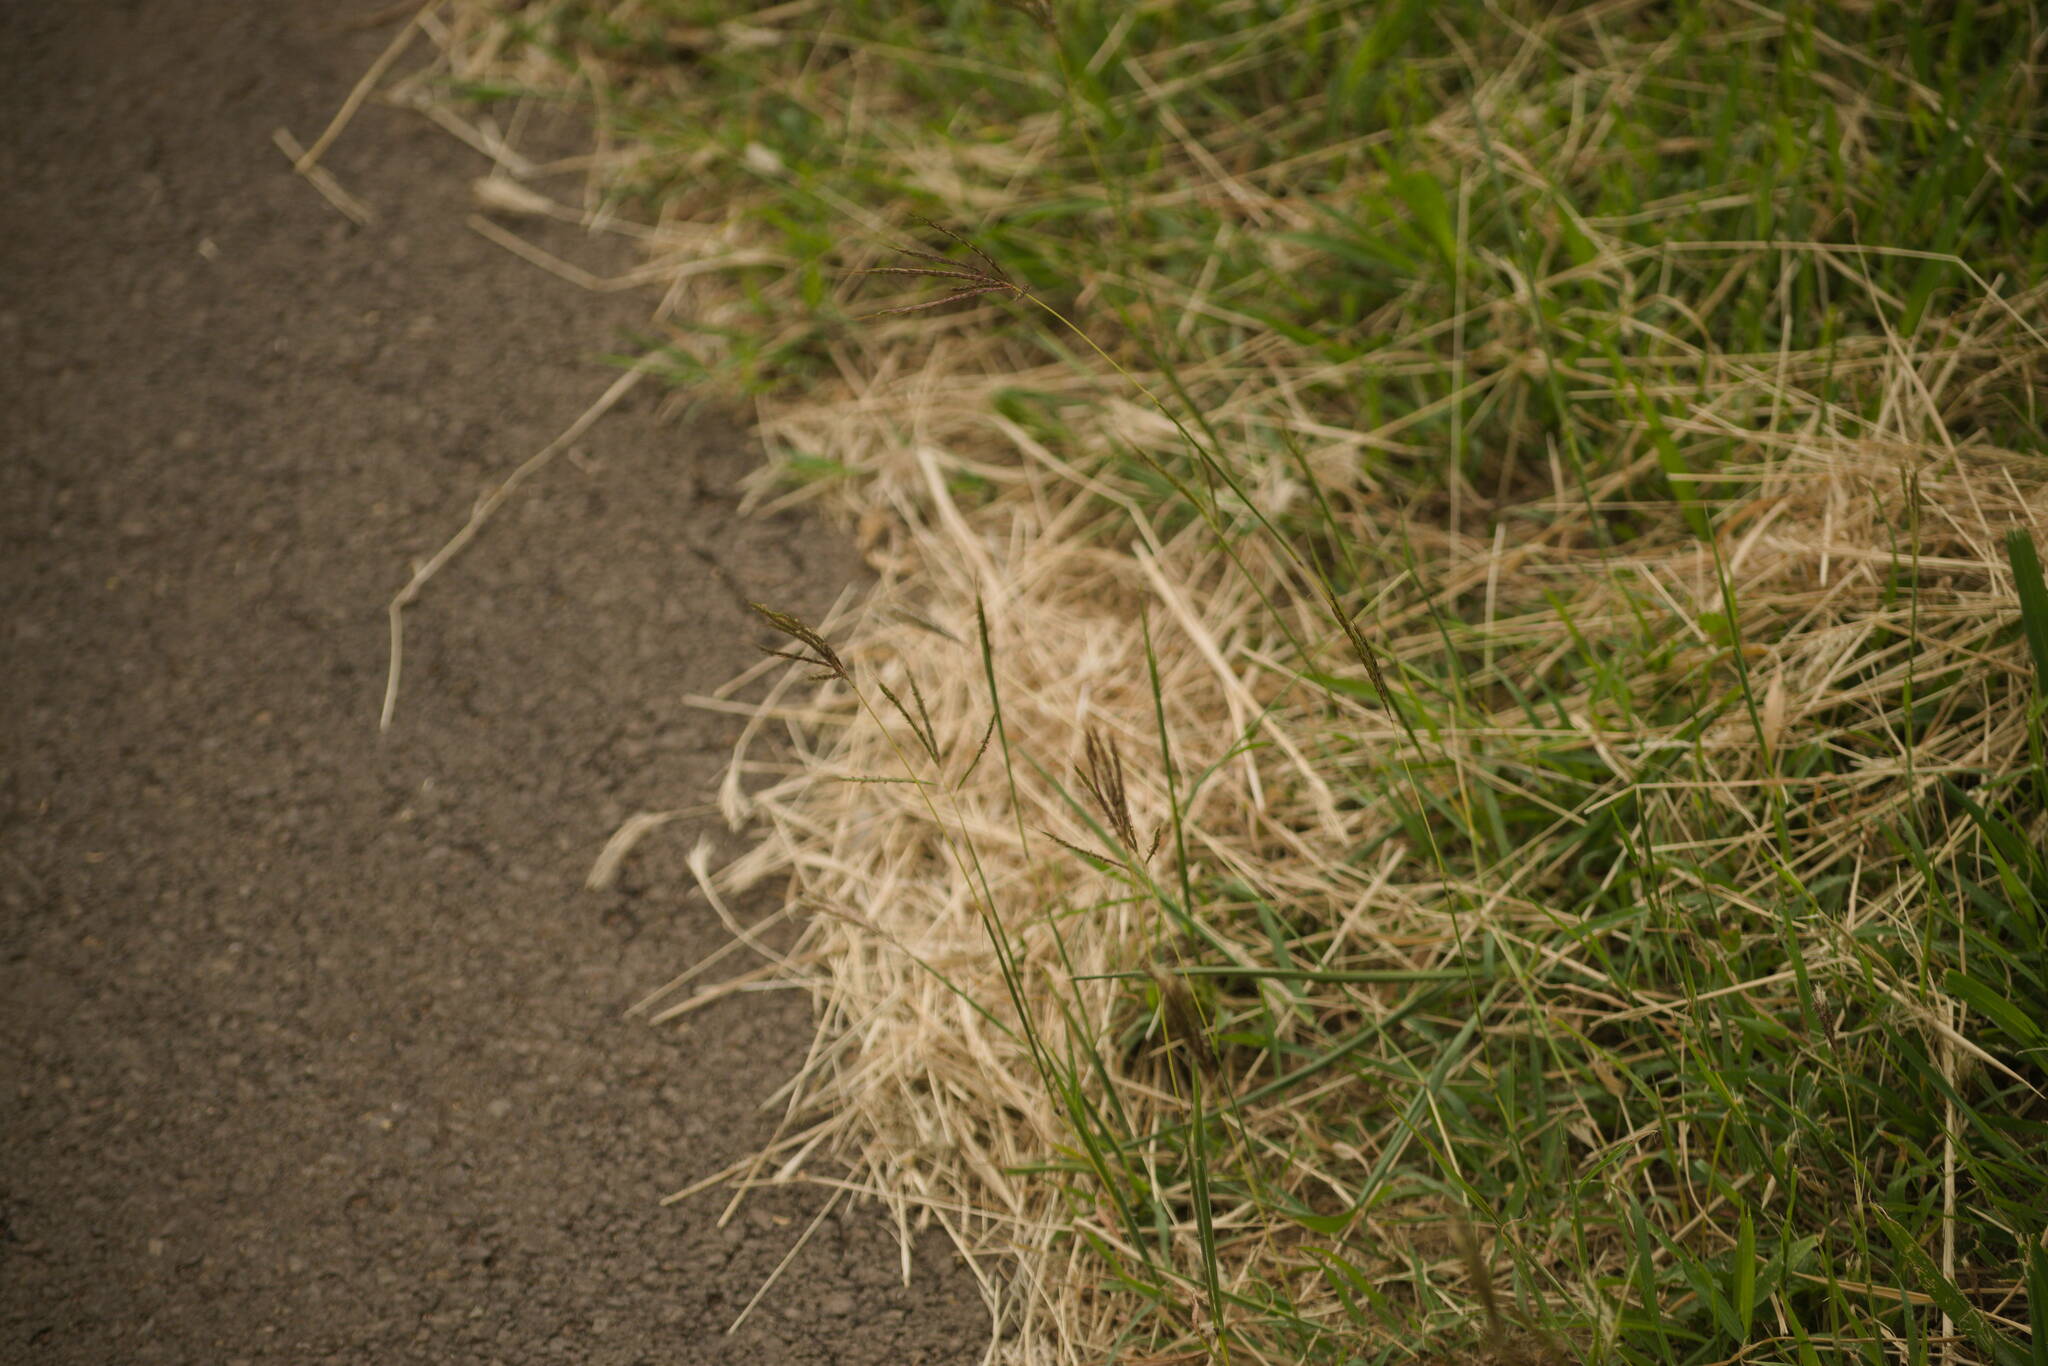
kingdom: Plantae
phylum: Tracheophyta
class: Liliopsida
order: Poales
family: Poaceae
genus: Bothriochloa
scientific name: Bothriochloa pertusa
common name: Pitted beardgrass
